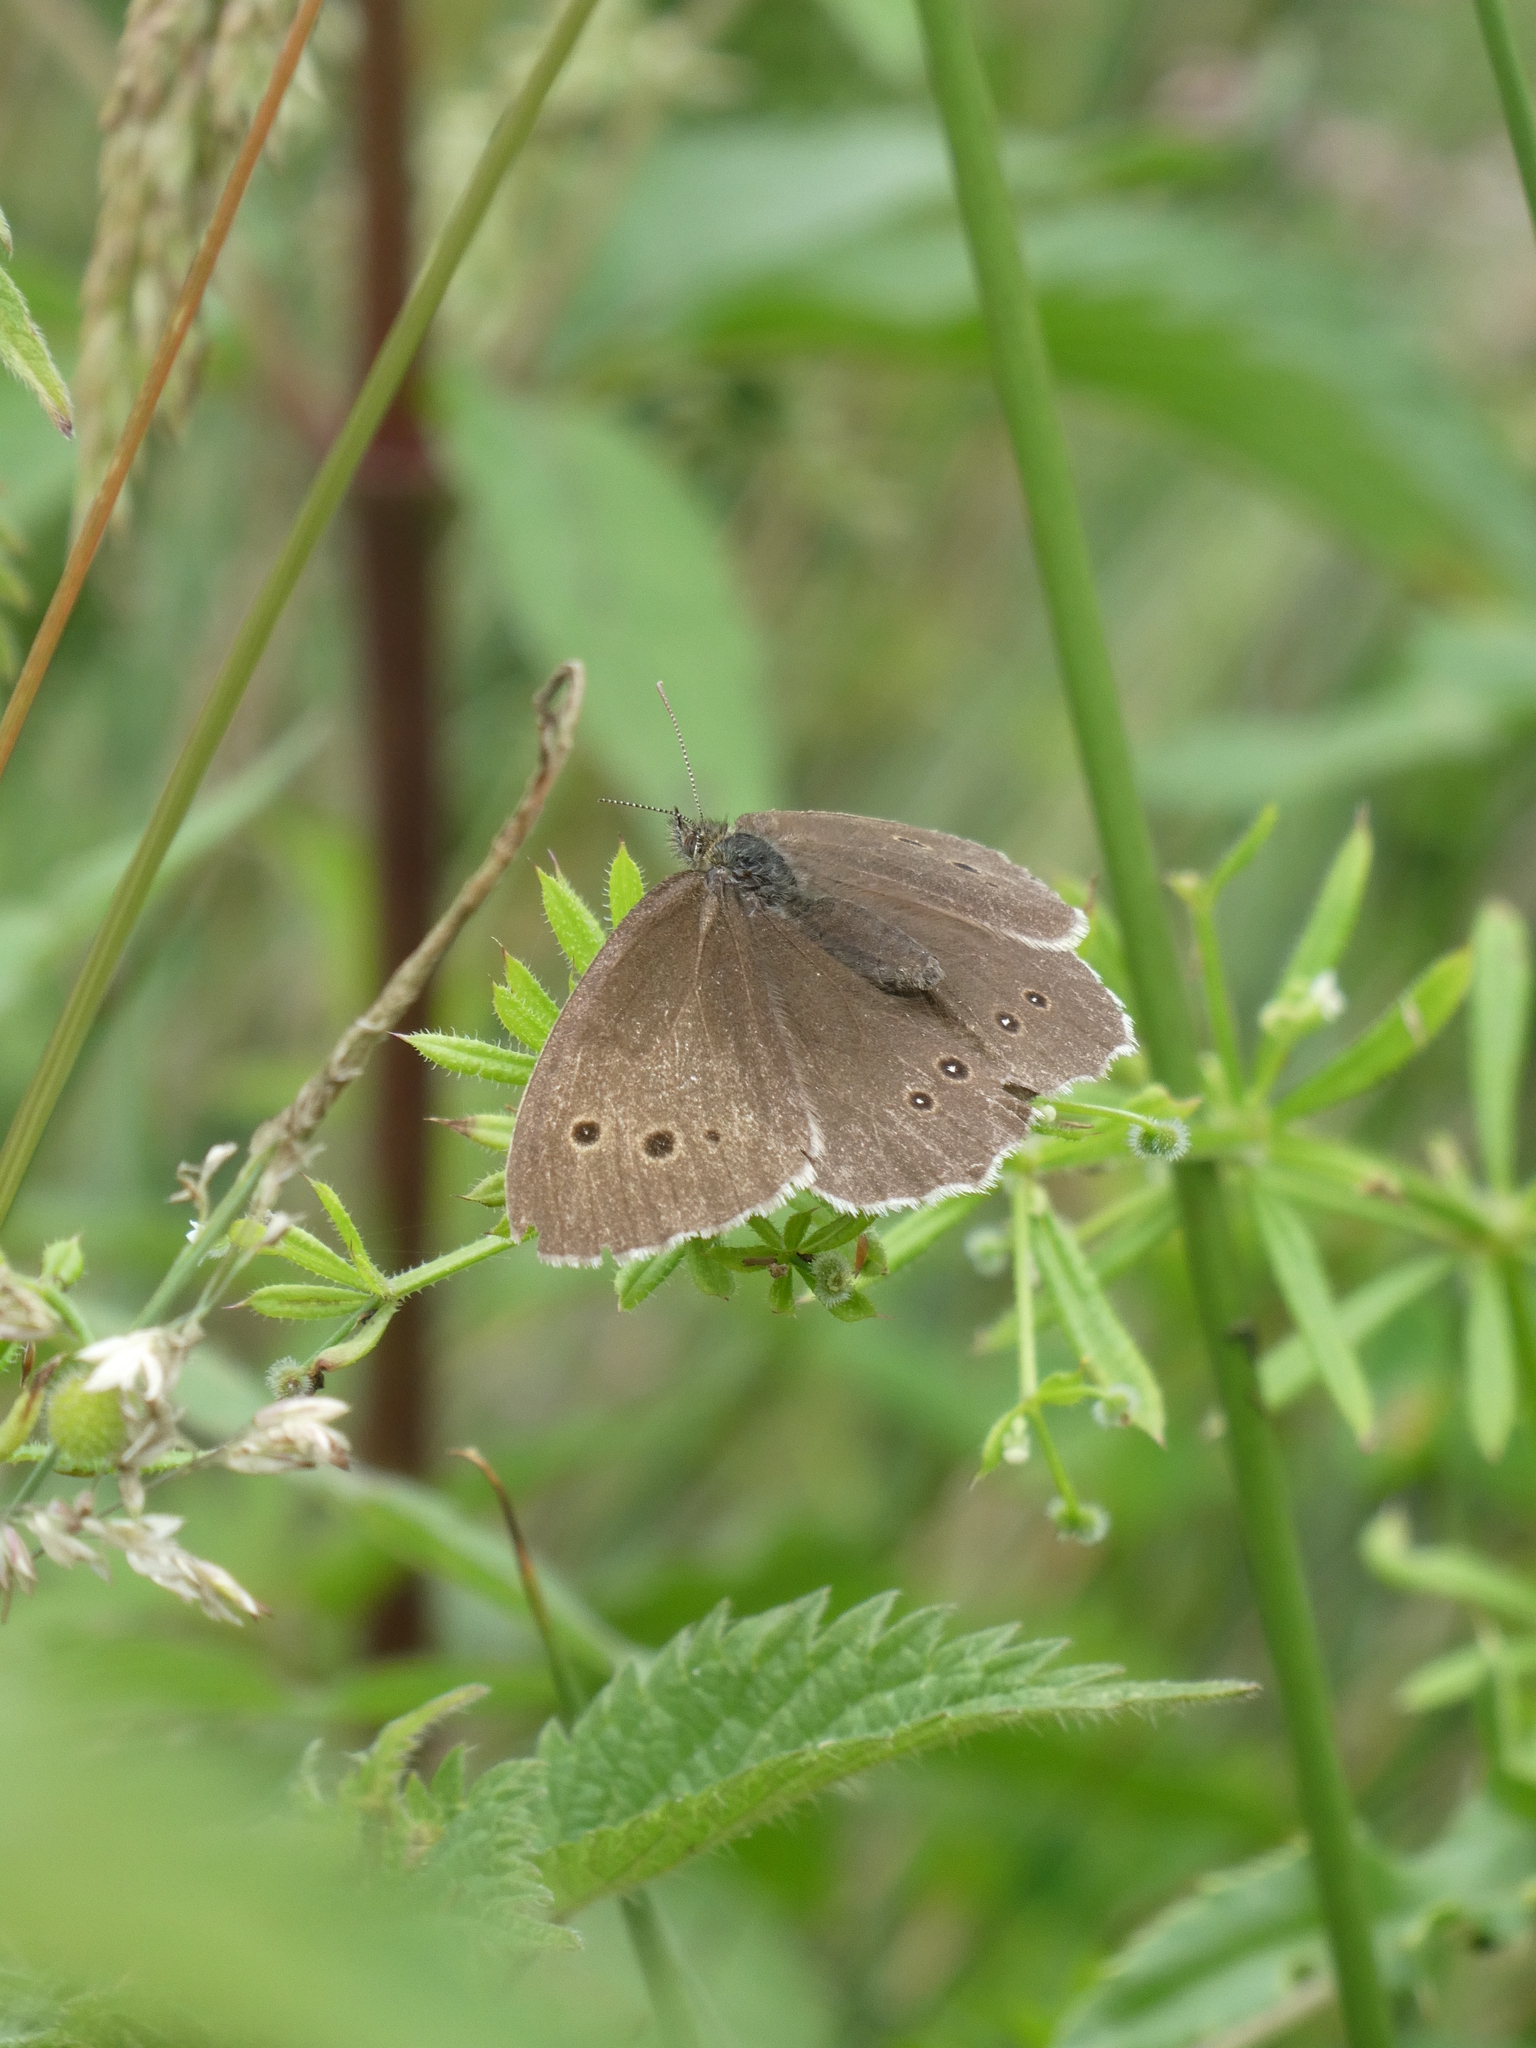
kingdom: Animalia
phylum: Arthropoda
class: Insecta
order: Lepidoptera
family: Nymphalidae
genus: Aphantopus
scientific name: Aphantopus hyperantus
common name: Ringlet
